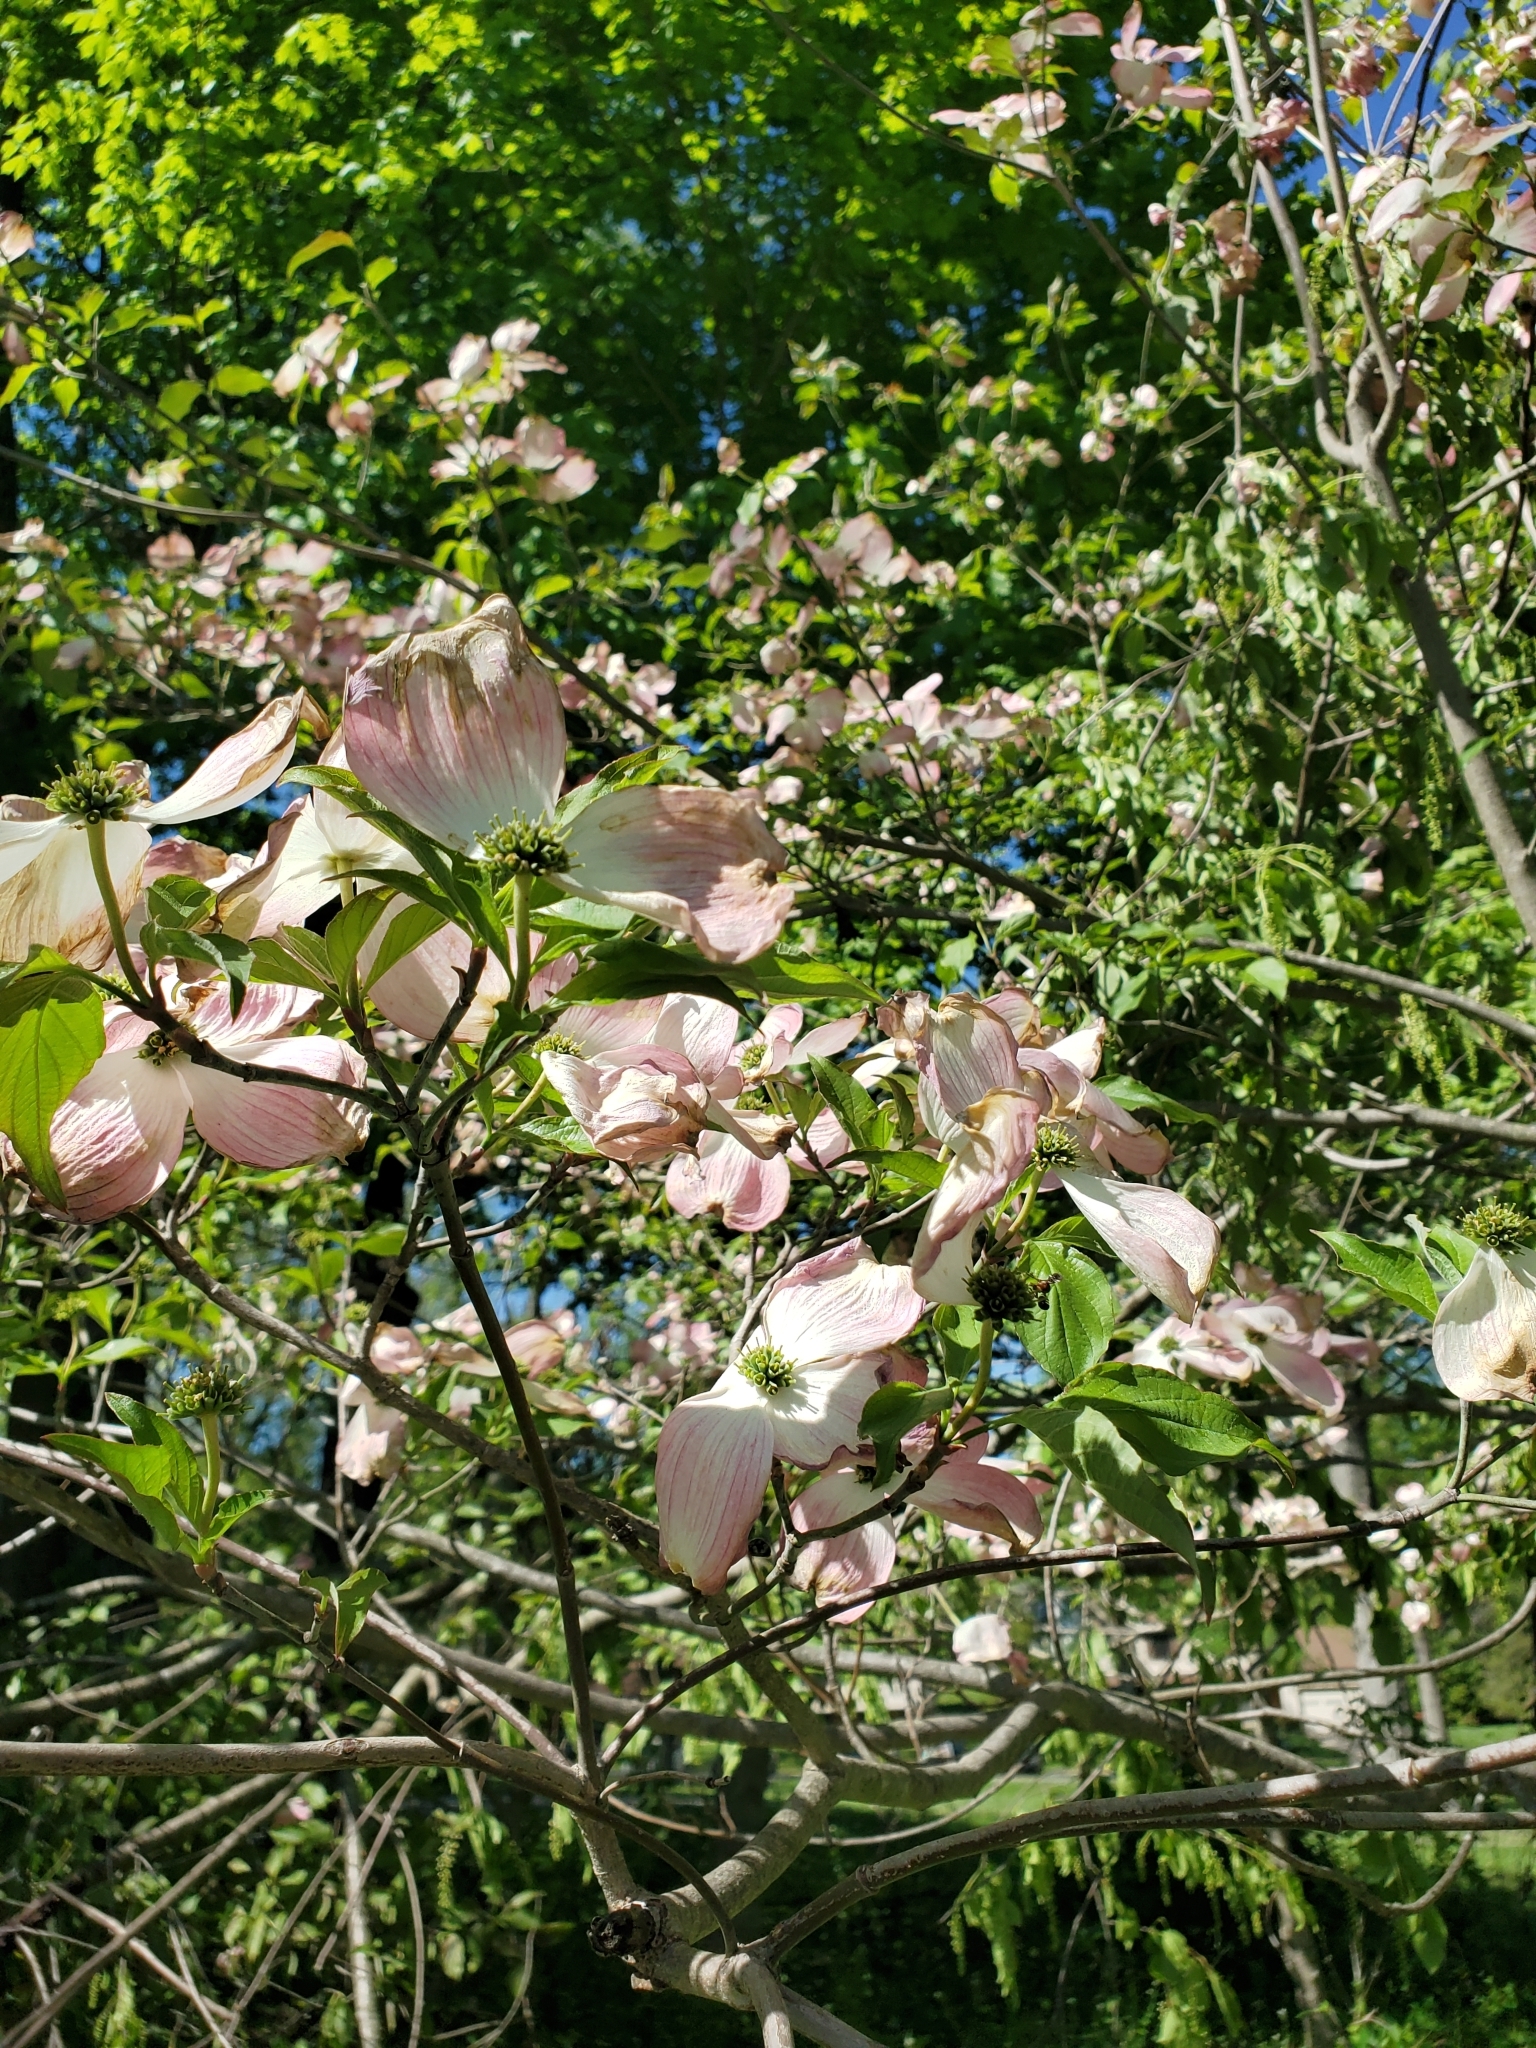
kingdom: Plantae
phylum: Tracheophyta
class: Magnoliopsida
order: Cornales
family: Cornaceae
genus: Cornus
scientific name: Cornus florida
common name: Flowering dogwood
